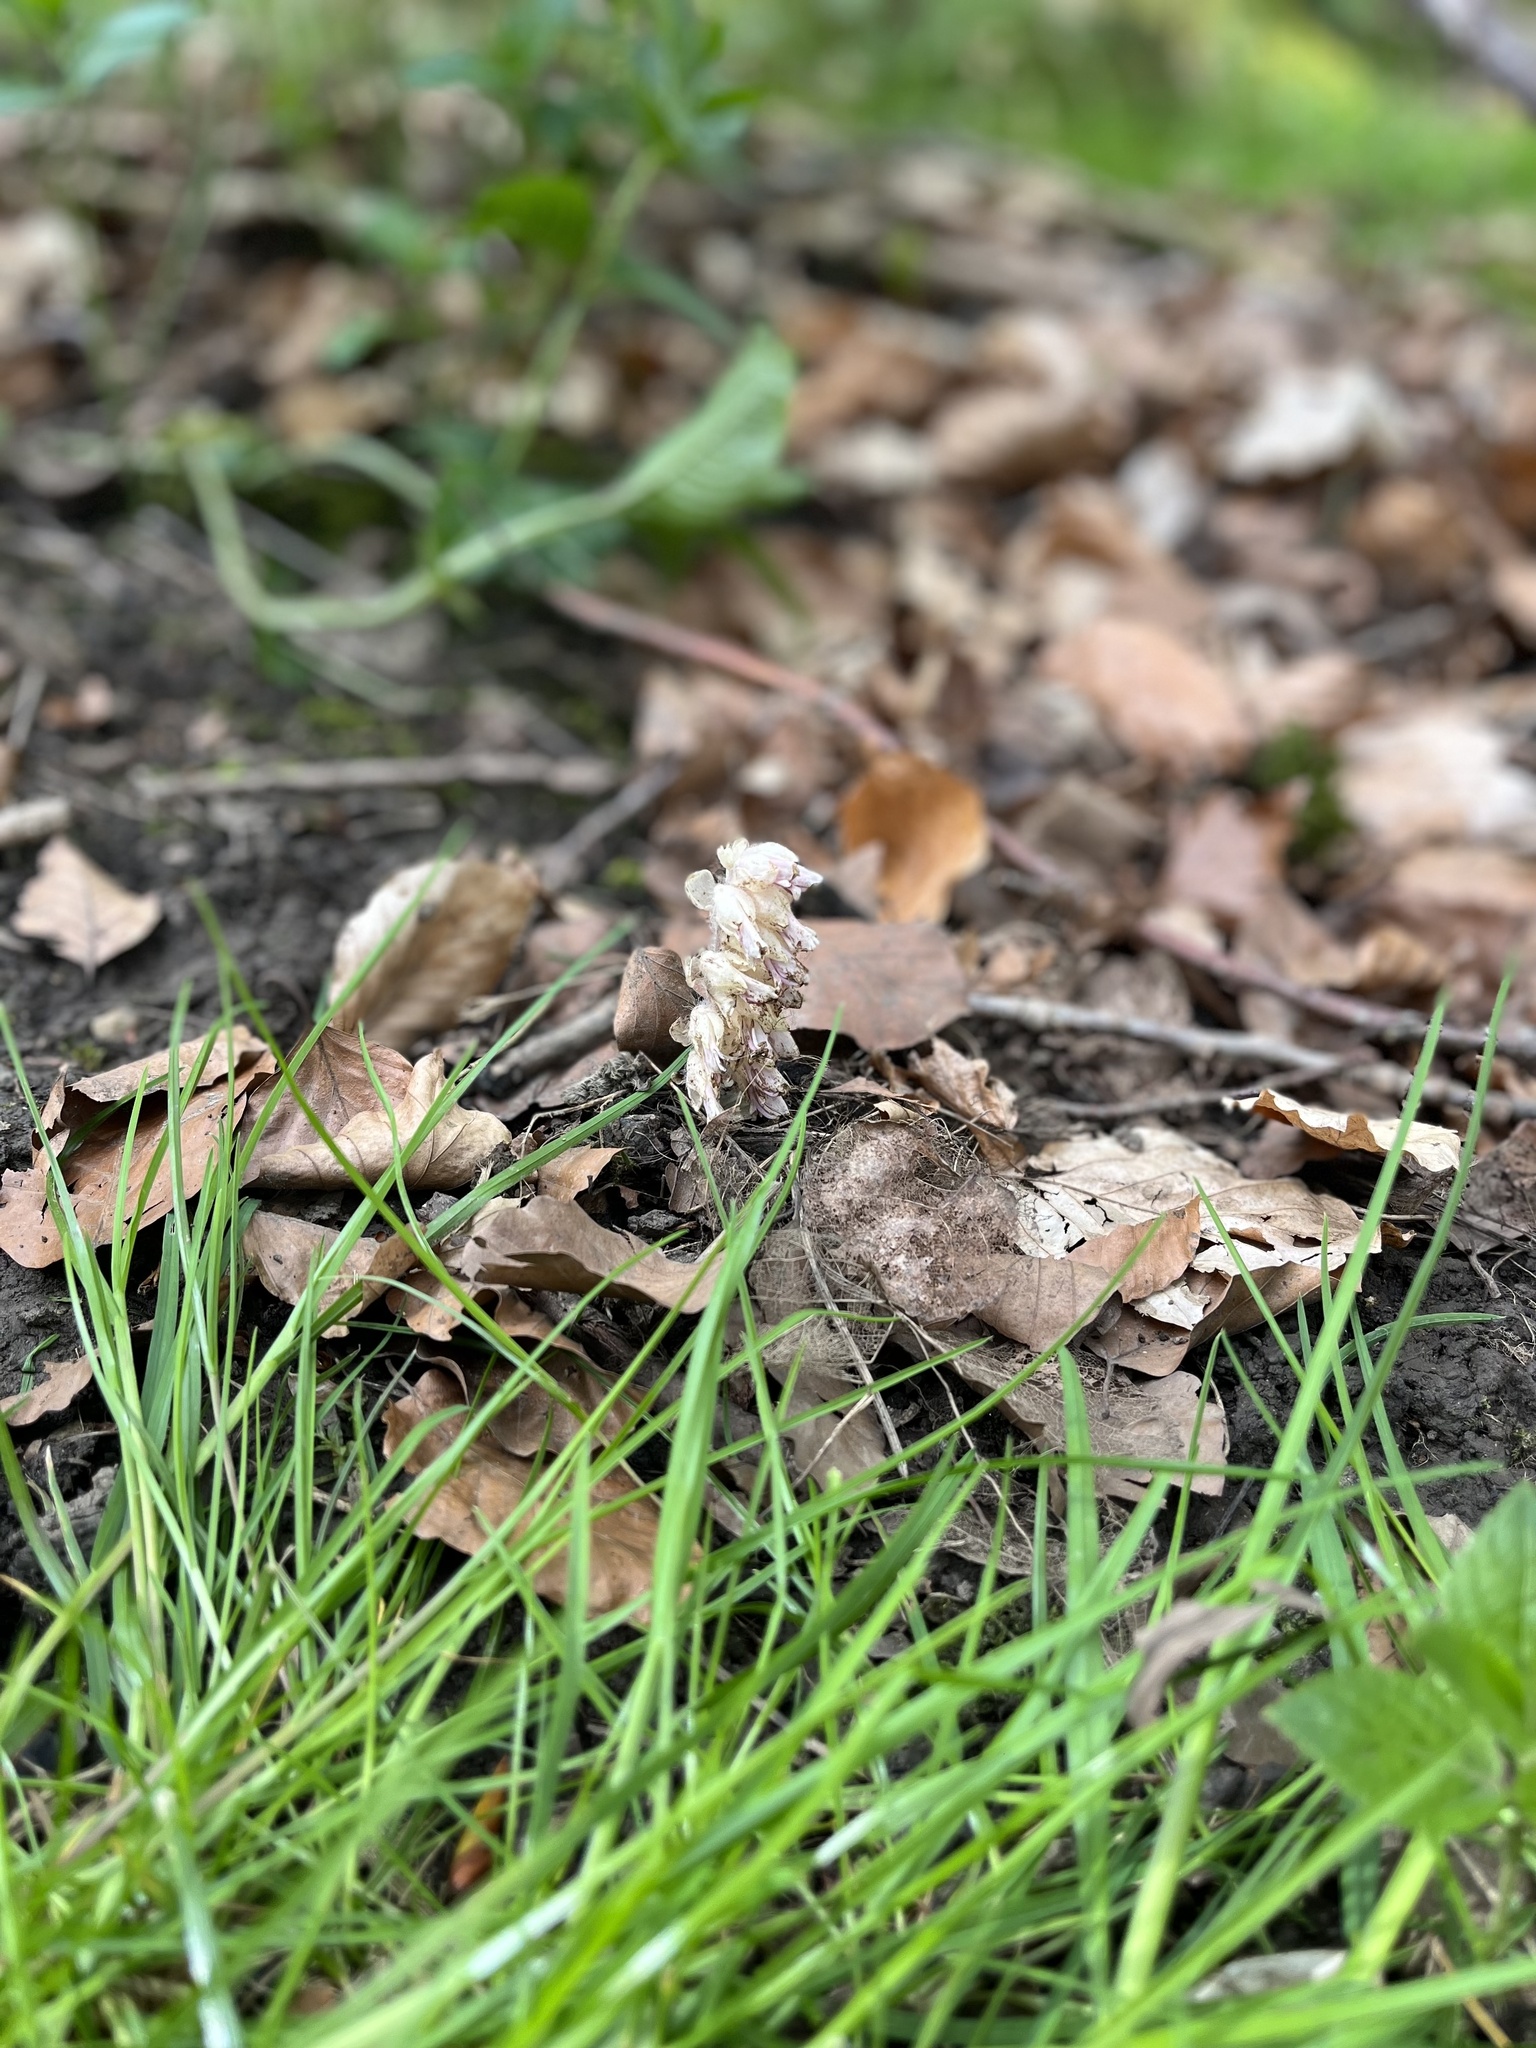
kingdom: Plantae
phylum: Tracheophyta
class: Magnoliopsida
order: Lamiales
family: Orobanchaceae
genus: Lathraea
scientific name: Lathraea squamaria
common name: Toothwort
